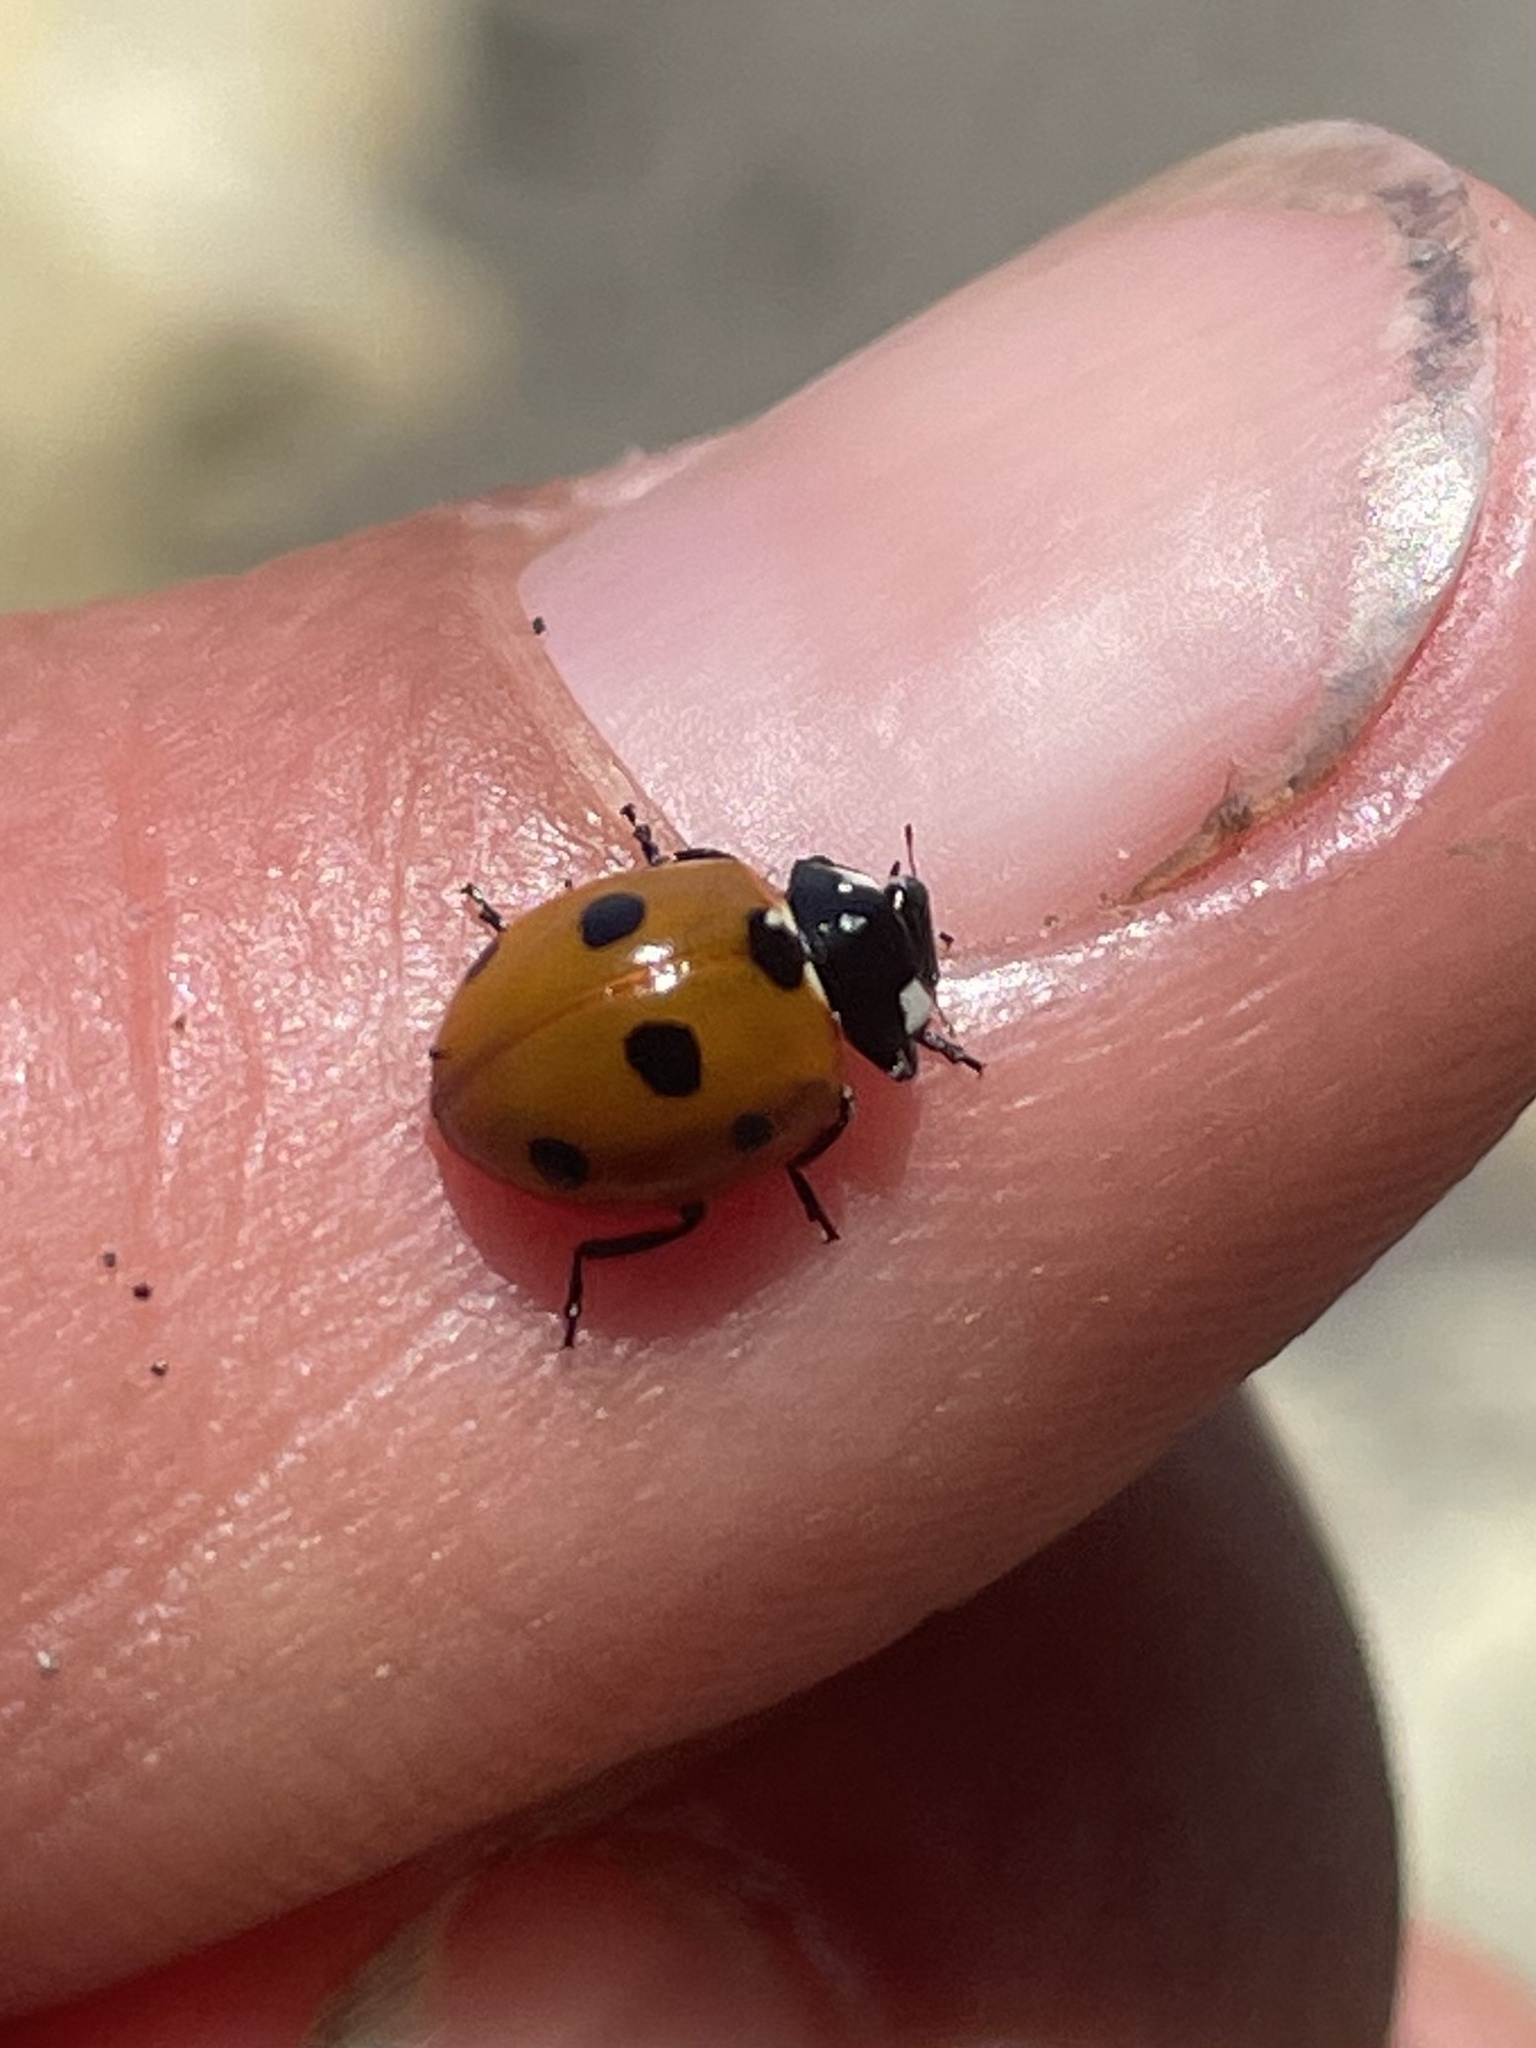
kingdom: Animalia
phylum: Arthropoda
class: Insecta
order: Coleoptera
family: Coccinellidae
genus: Coccinella
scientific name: Coccinella septempunctata
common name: Sevenspotted lady beetle
